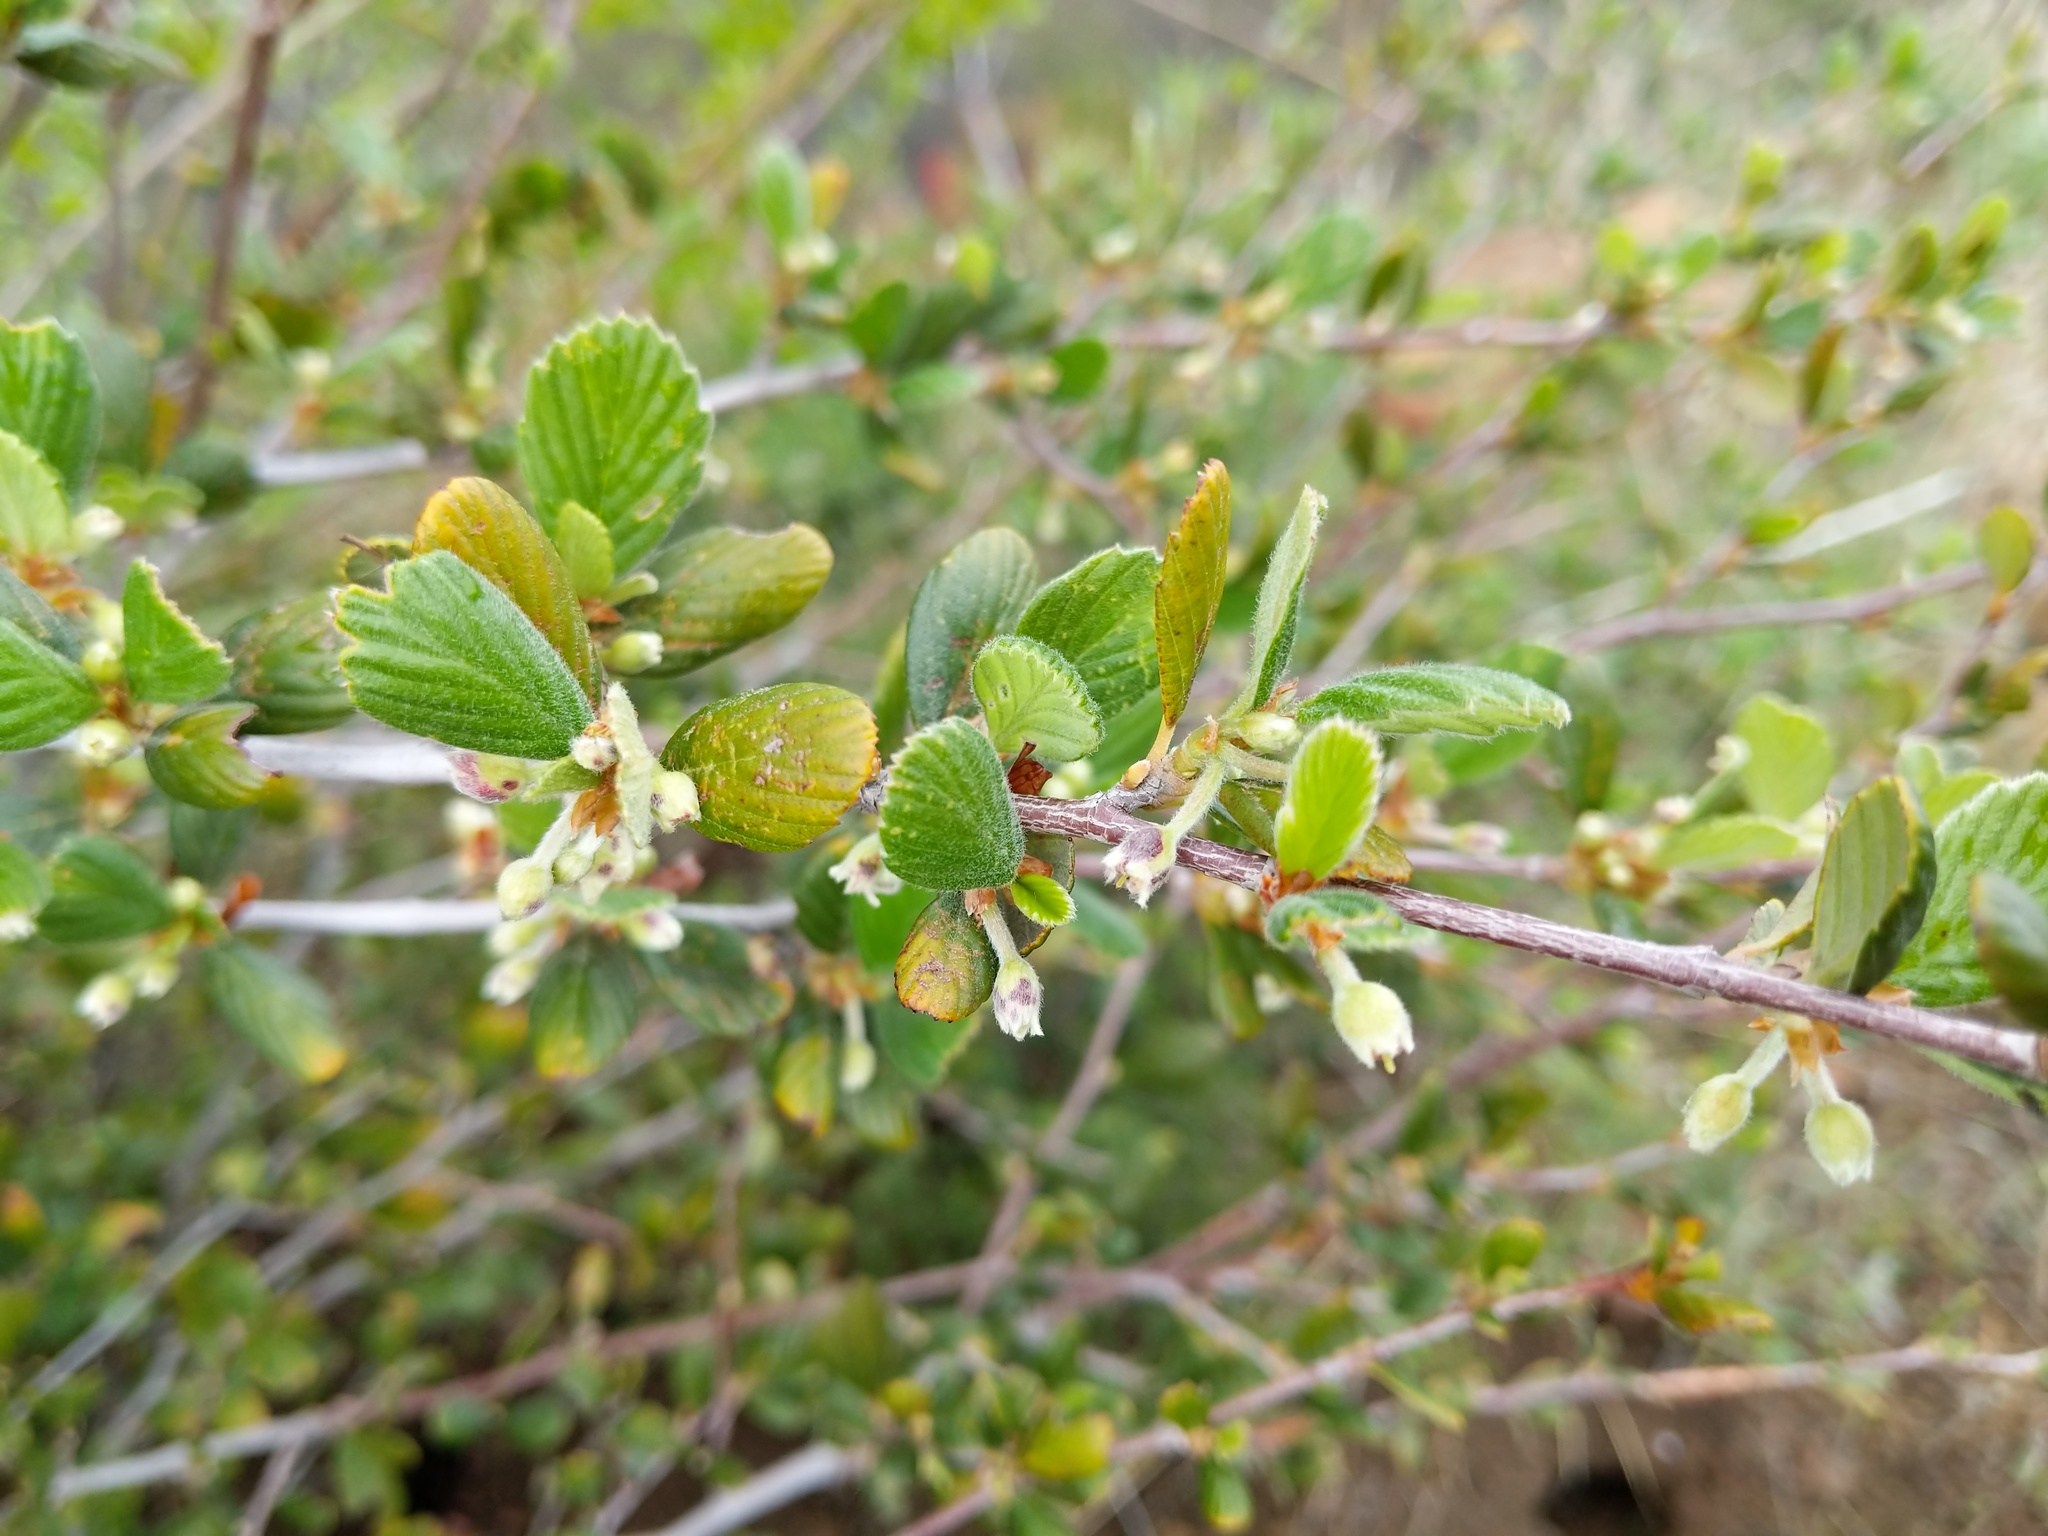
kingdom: Plantae
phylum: Tracheophyta
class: Magnoliopsida
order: Rosales
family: Rosaceae
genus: Cercocarpus
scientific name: Cercocarpus betuloides
